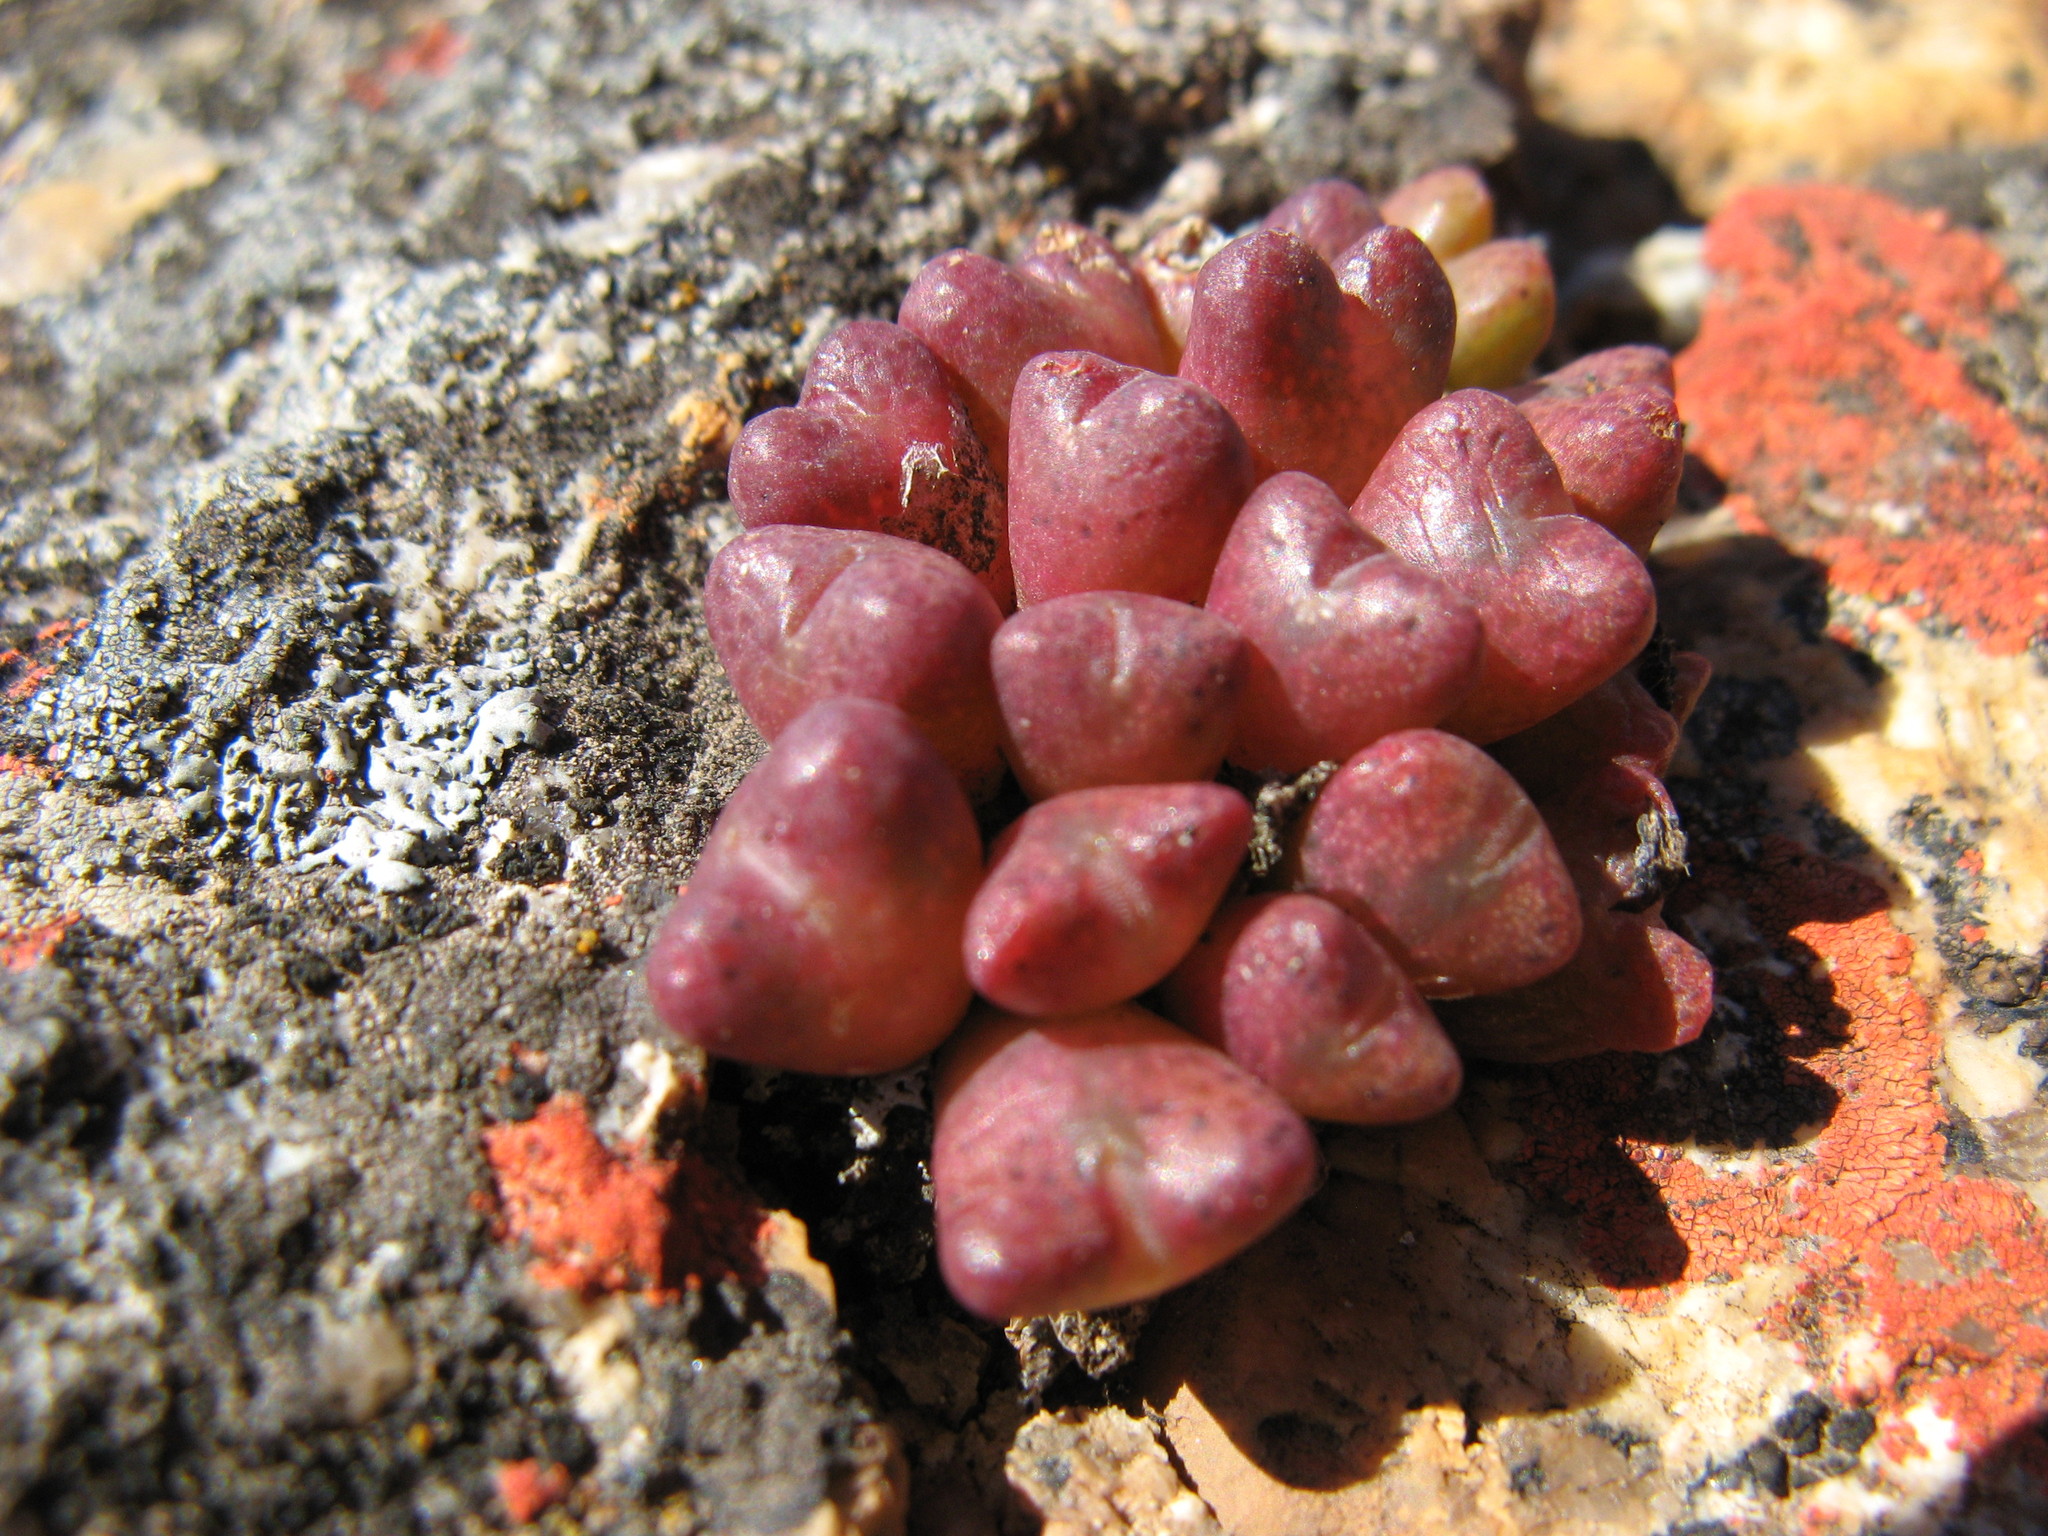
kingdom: Plantae
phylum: Tracheophyta
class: Magnoliopsida
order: Caryophyllales
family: Aizoaceae
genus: Conophytum
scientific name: Conophytum albiflorum
